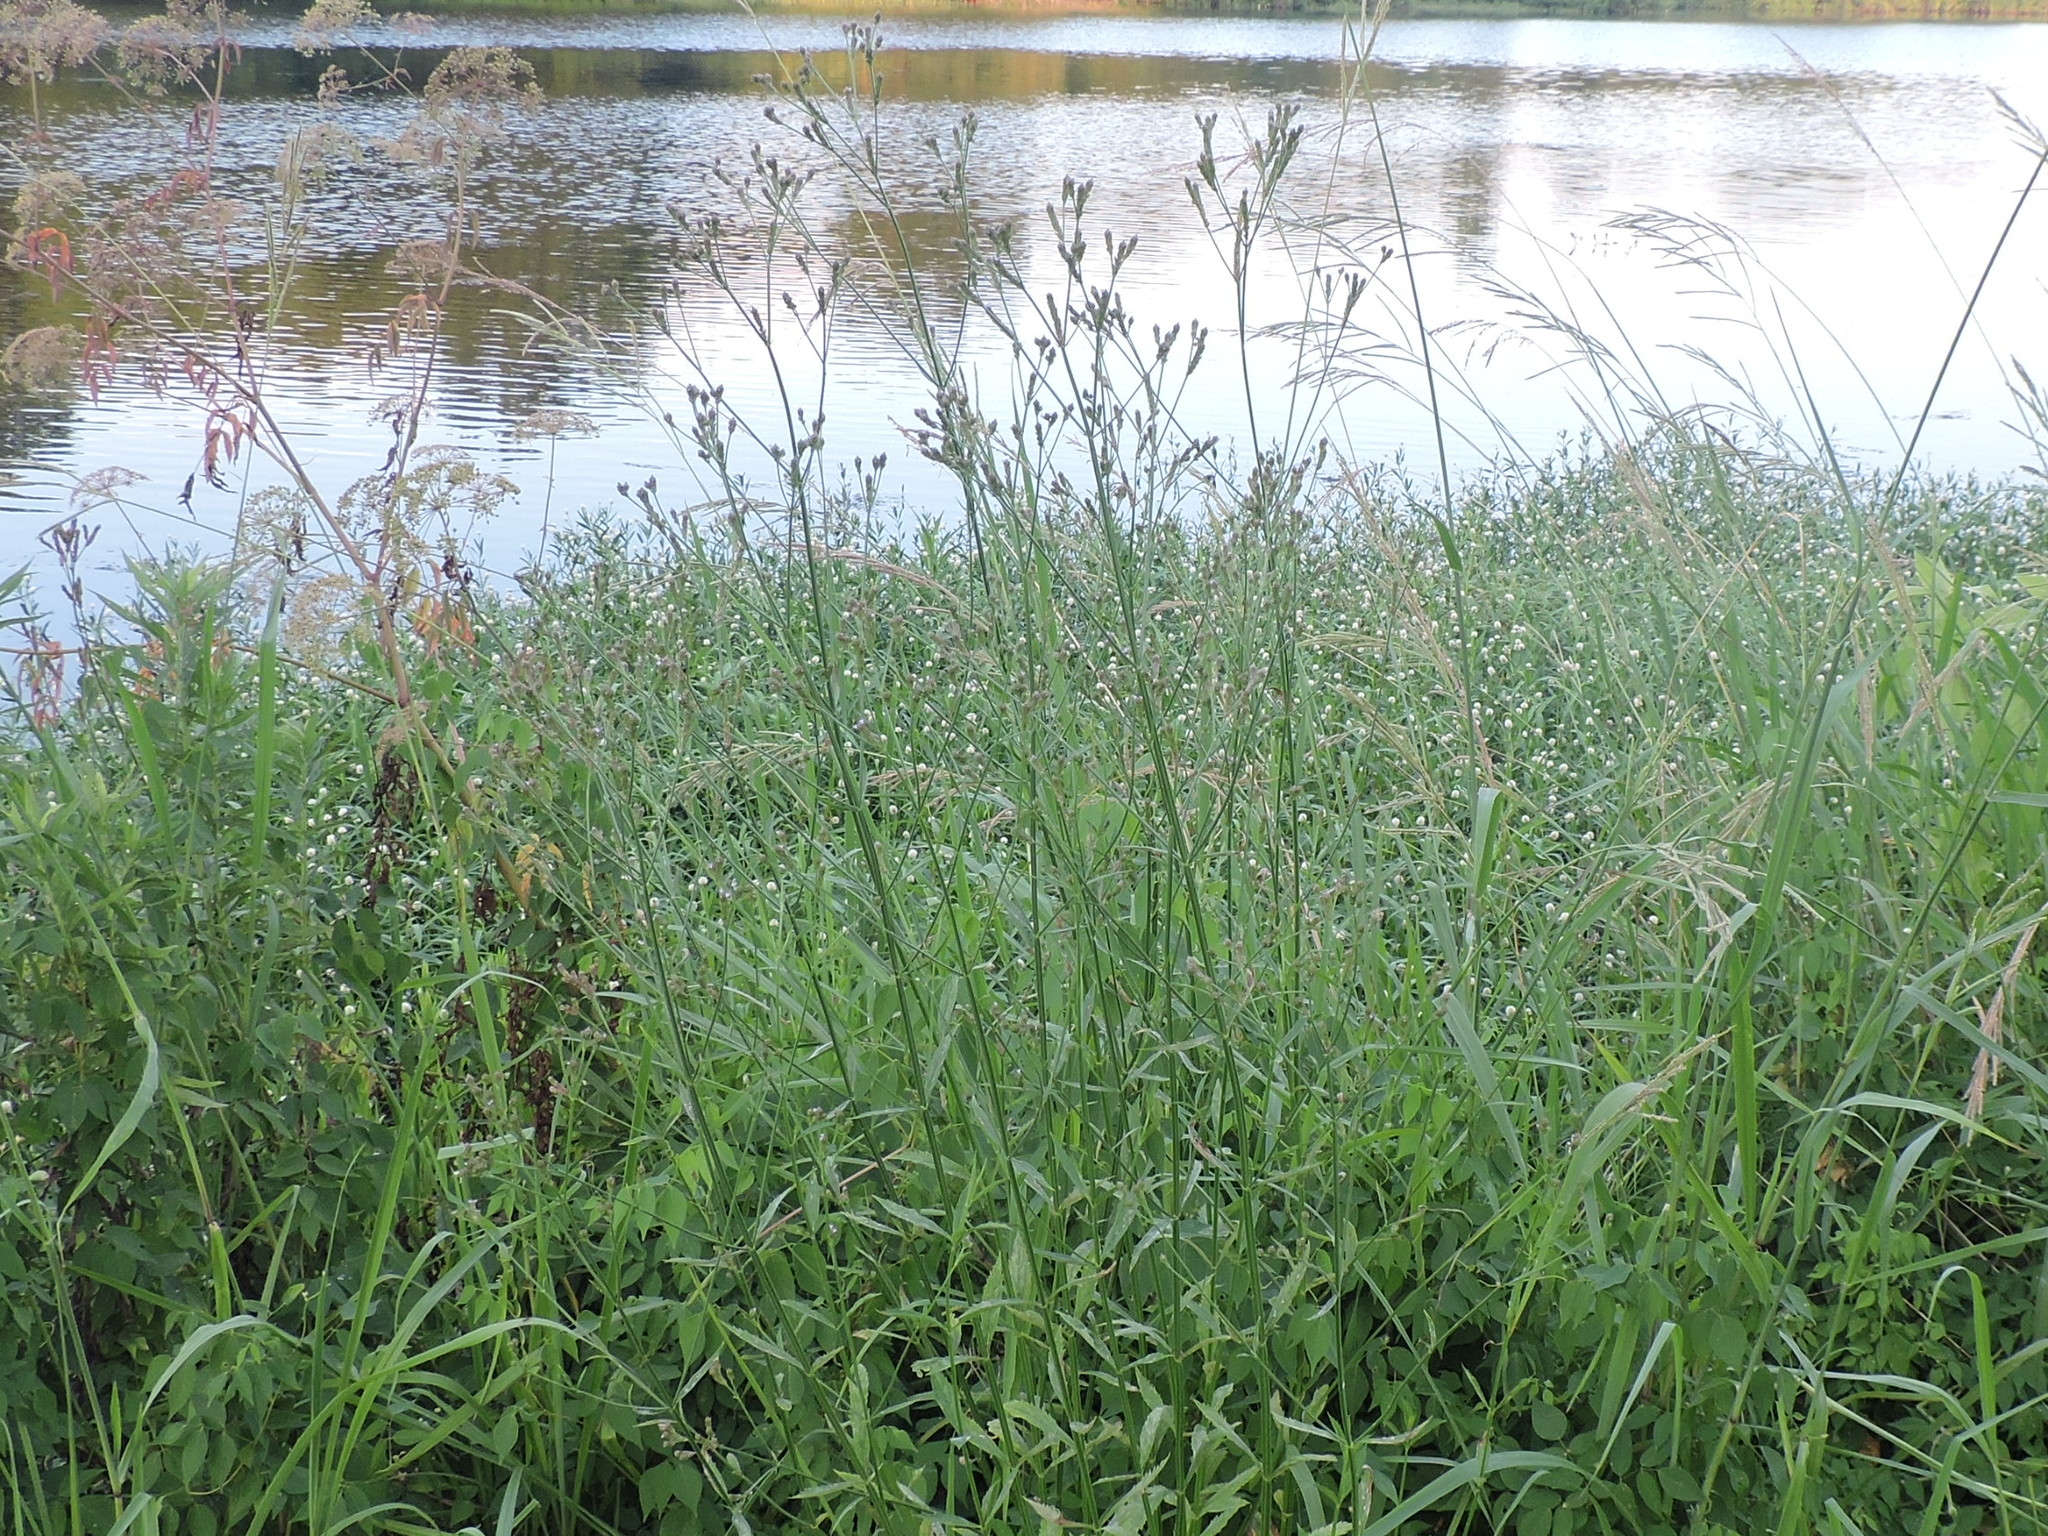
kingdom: Plantae
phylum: Tracheophyta
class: Magnoliopsida
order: Lamiales
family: Verbenaceae
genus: Verbena
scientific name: Verbena brasiliensis
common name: Brazilian vervain
